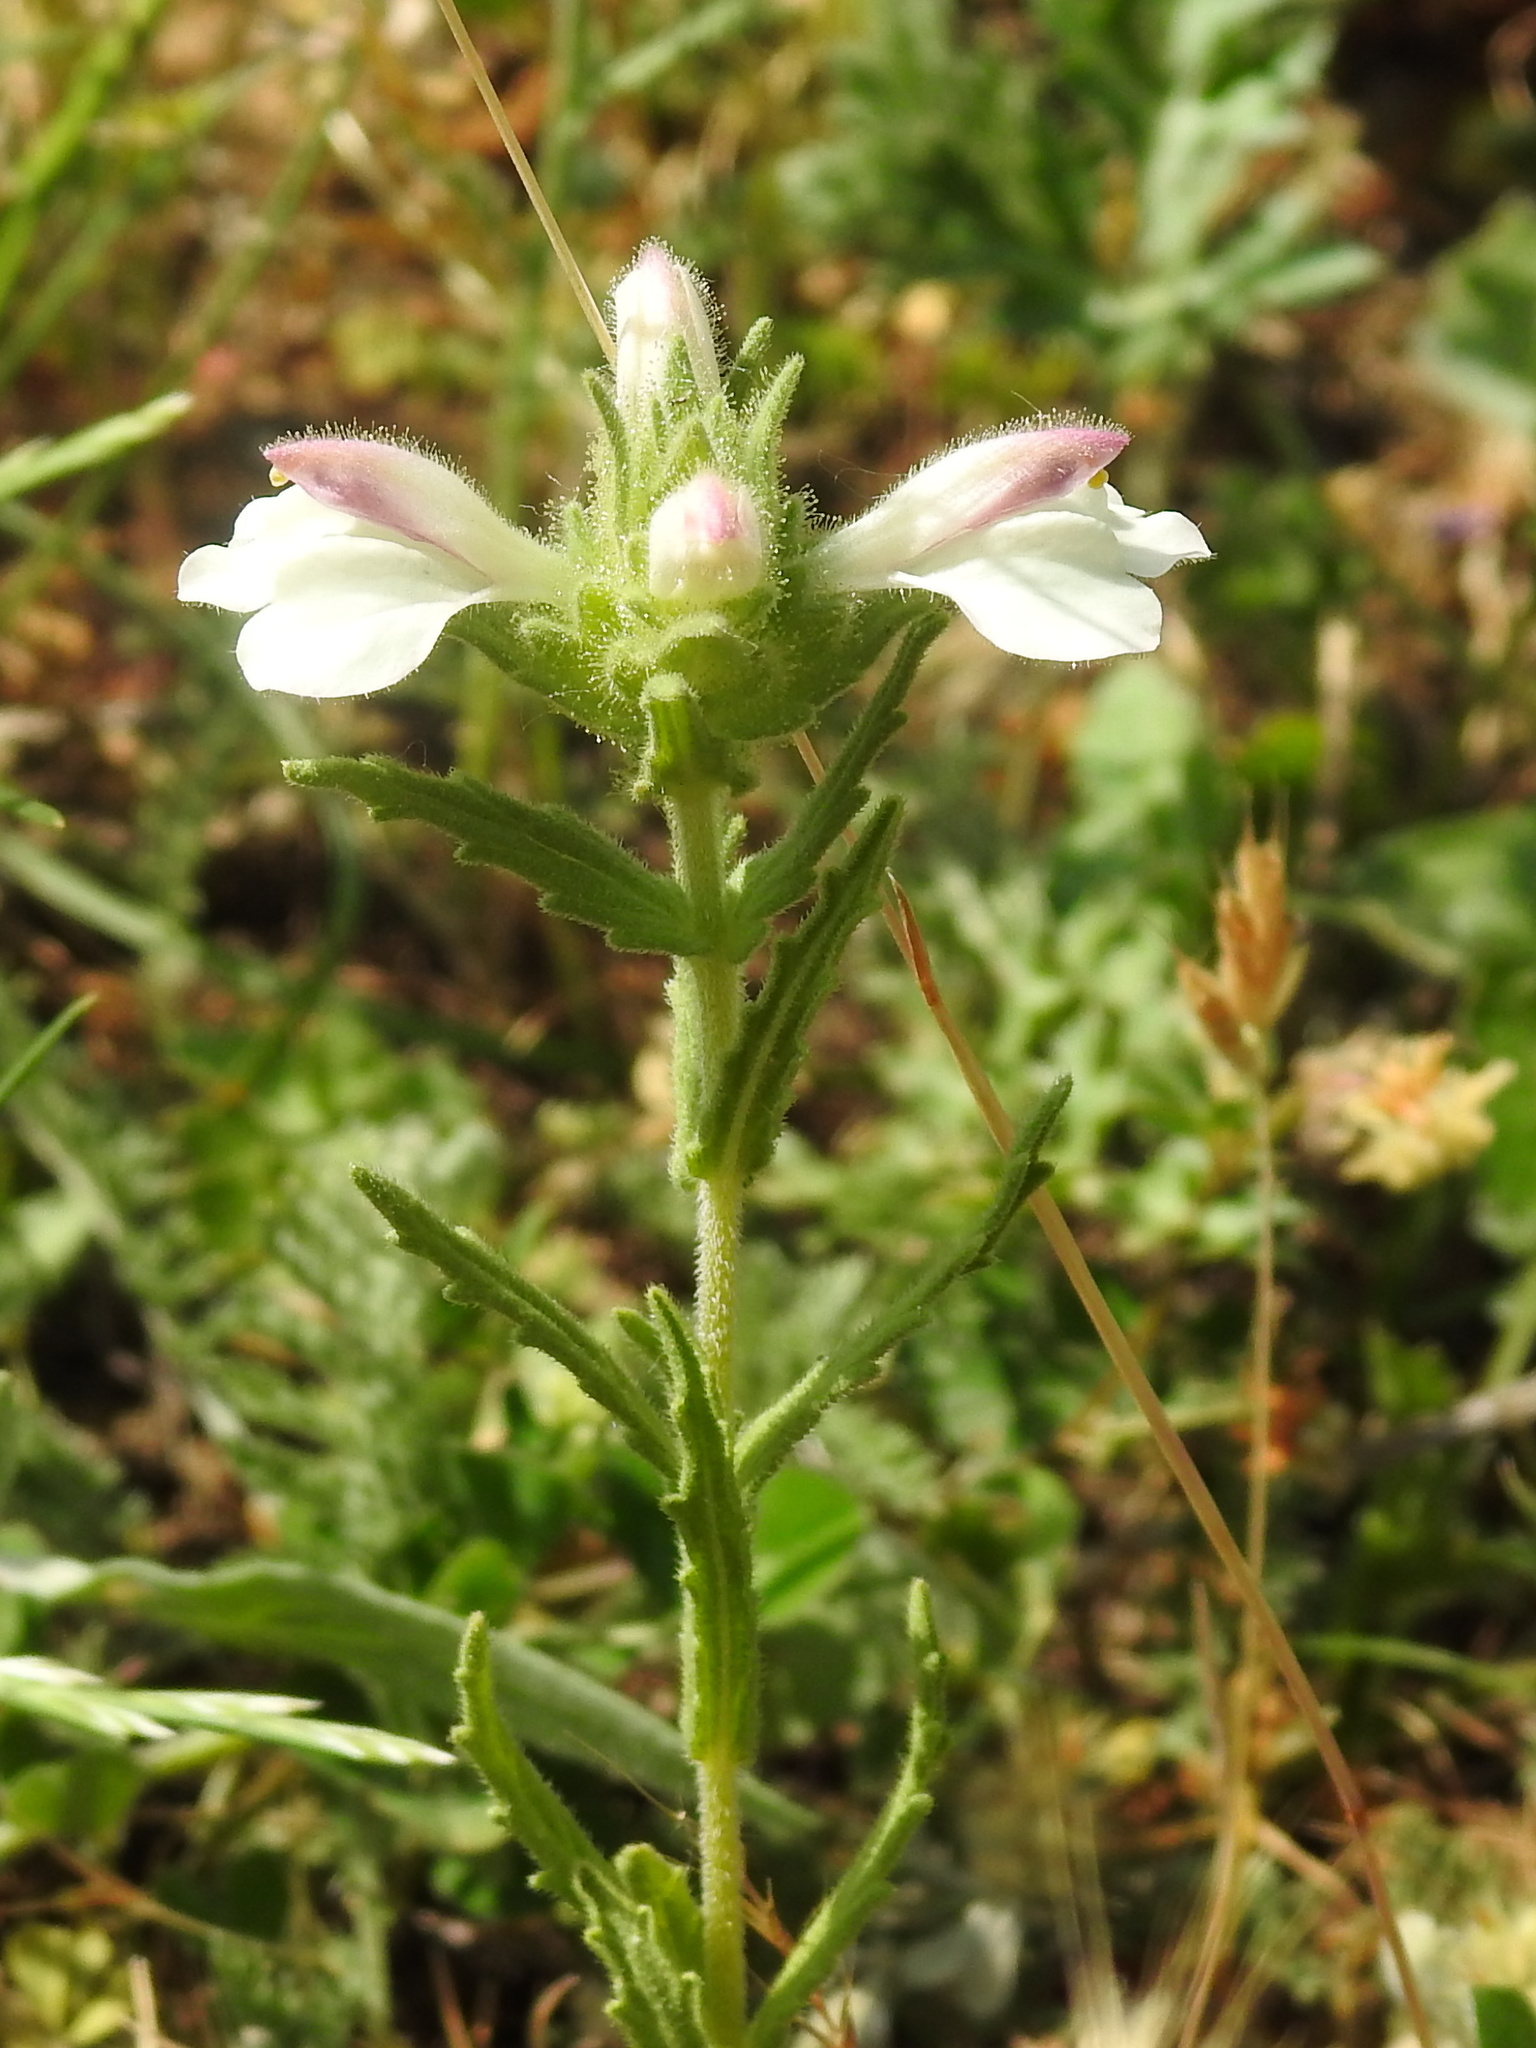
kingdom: Plantae
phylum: Tracheophyta
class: Magnoliopsida
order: Lamiales
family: Orobanchaceae
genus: Bellardia
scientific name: Bellardia trixago
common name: Mediterranean lineseed
